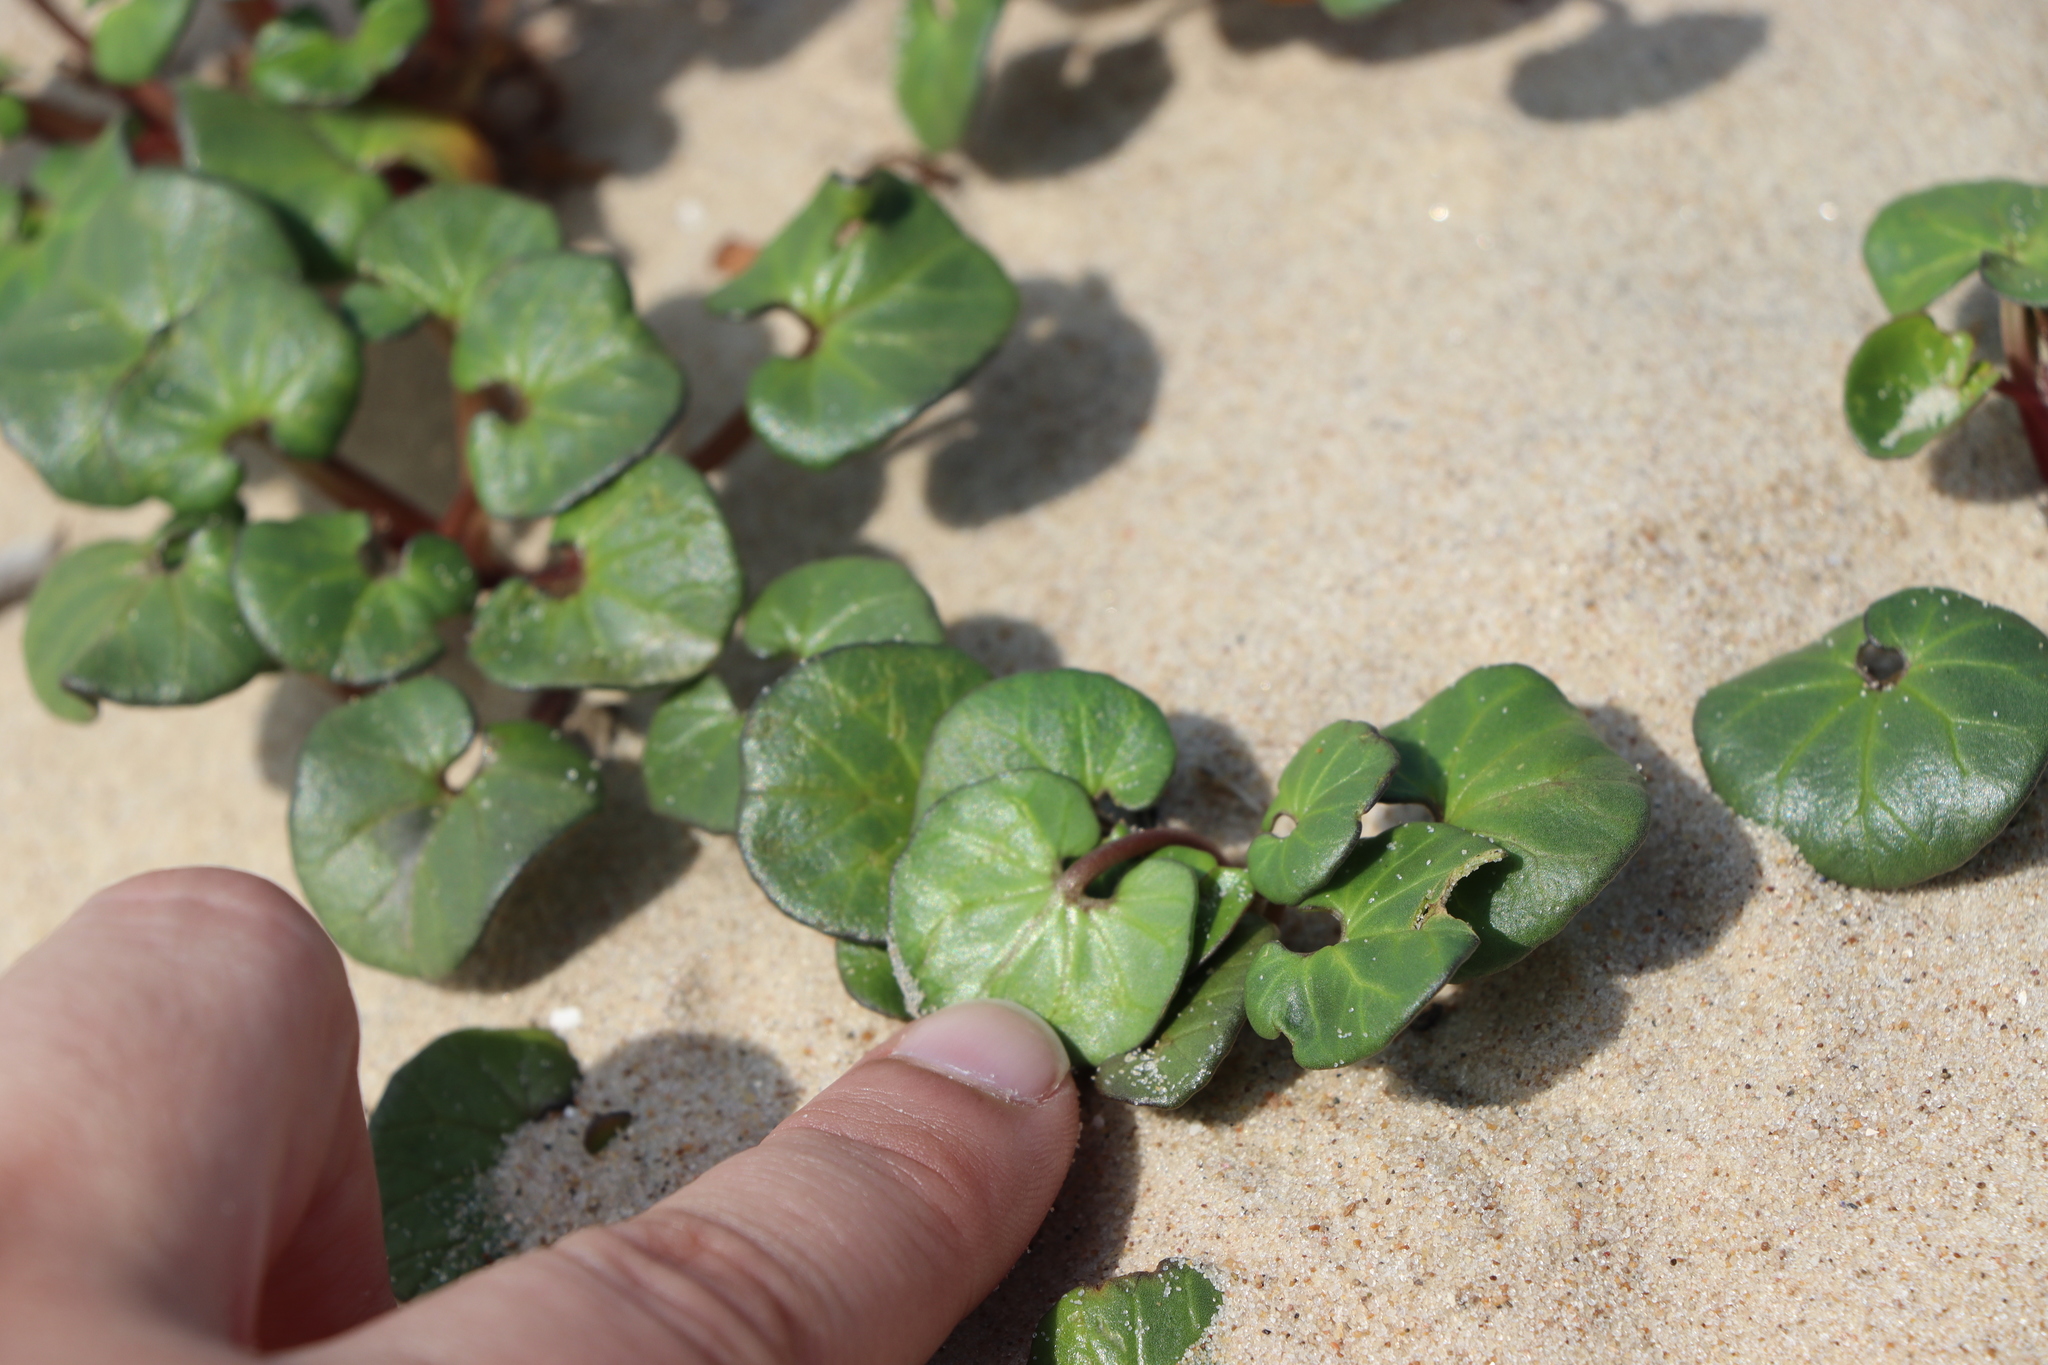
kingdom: Plantae
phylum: Tracheophyta
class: Magnoliopsida
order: Solanales
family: Convolvulaceae
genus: Calystegia
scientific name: Calystegia soldanella
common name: Sea bindweed
